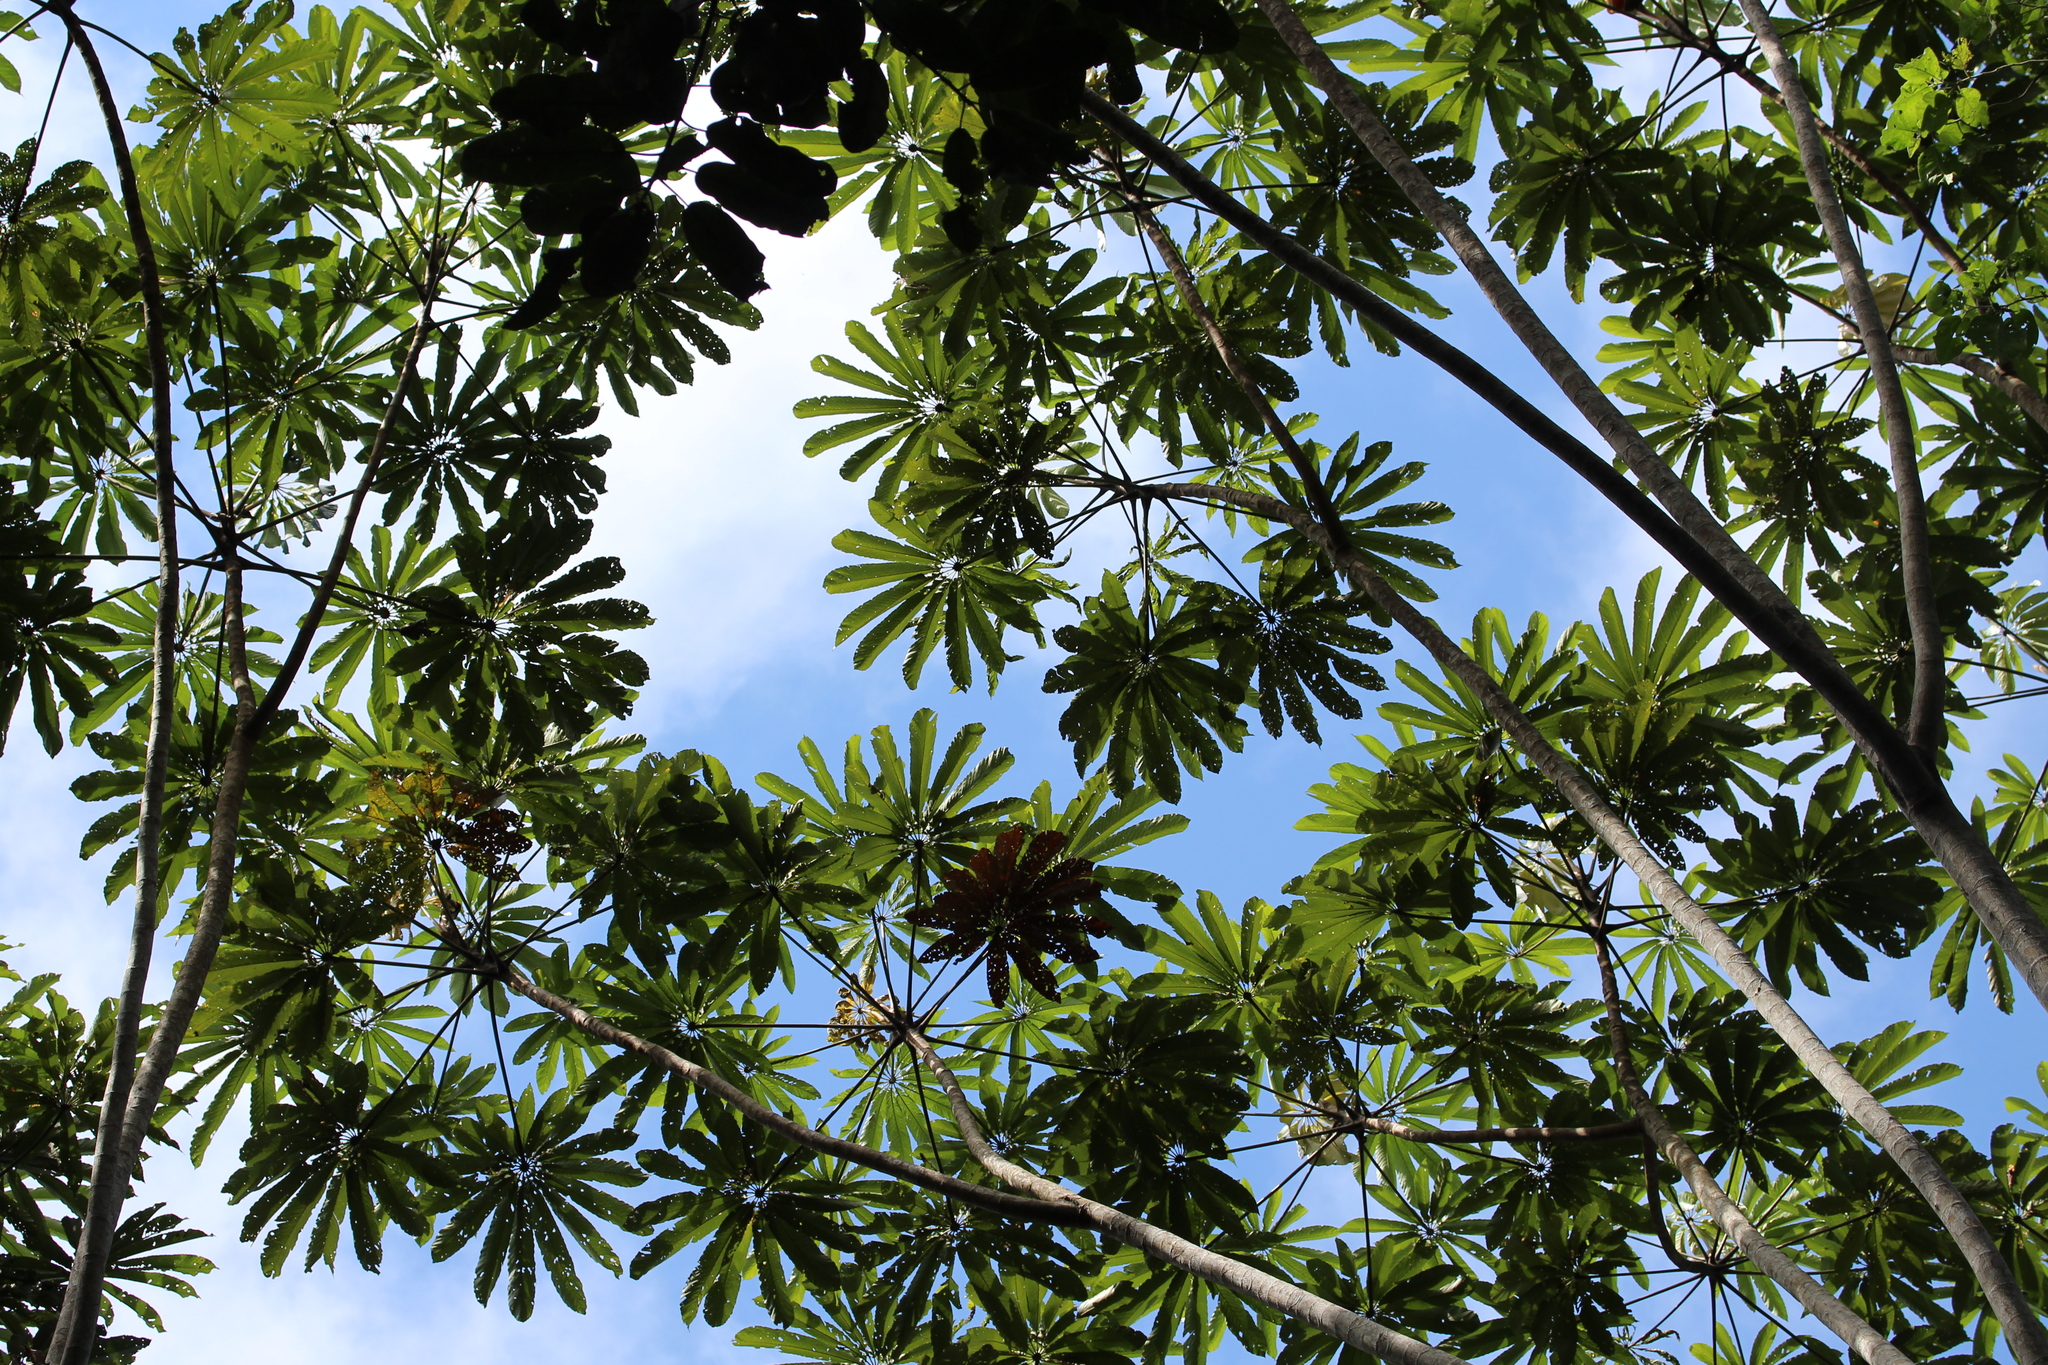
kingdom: Plantae
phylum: Tracheophyta
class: Magnoliopsida
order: Rosales
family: Urticaceae
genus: Cecropia
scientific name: Cecropia sciadophylla
